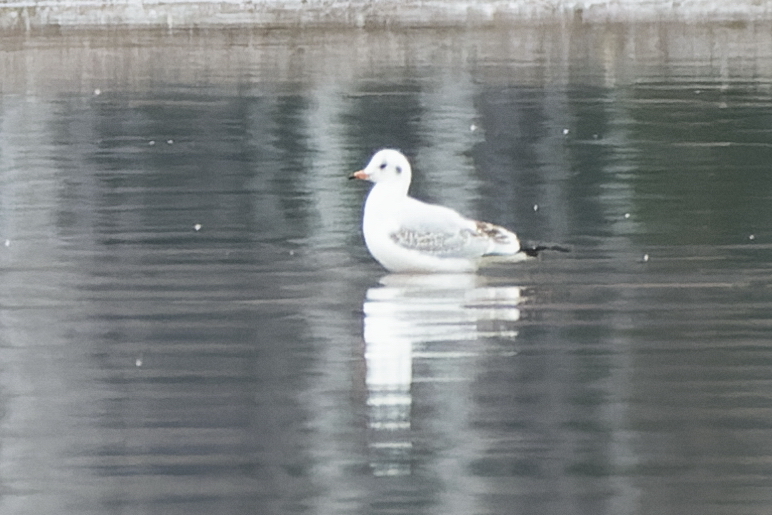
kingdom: Animalia
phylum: Chordata
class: Aves
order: Charadriiformes
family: Laridae
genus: Chroicocephalus
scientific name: Chroicocephalus ridibundus
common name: Black-headed gull
